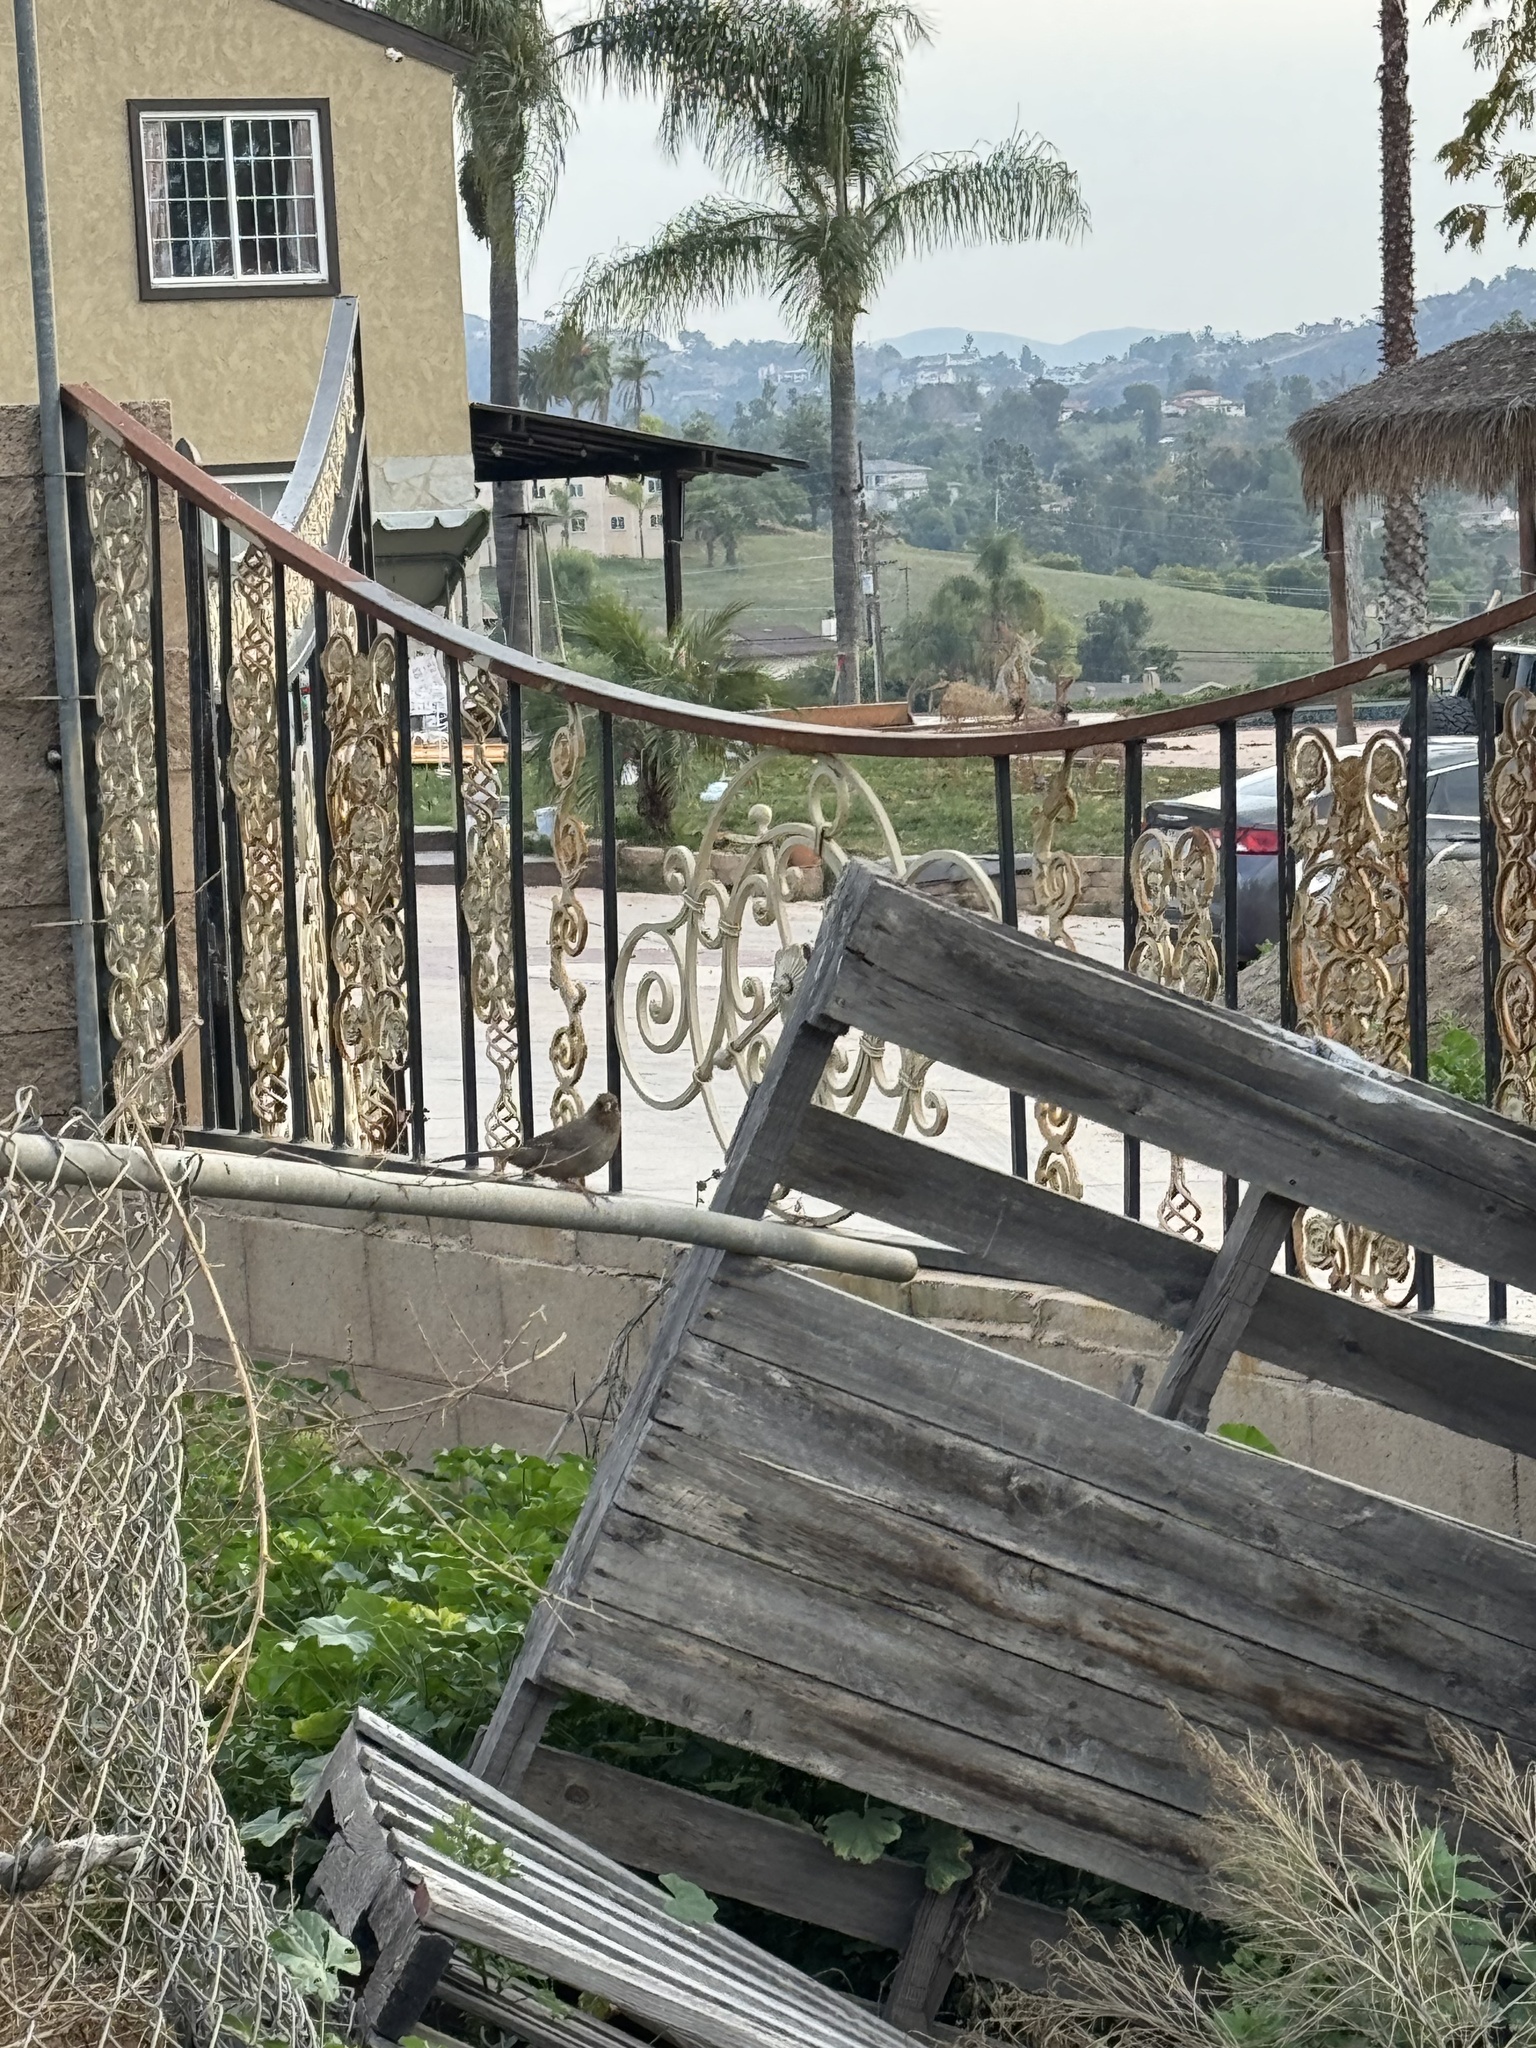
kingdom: Animalia
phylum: Chordata
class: Aves
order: Passeriformes
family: Passerellidae
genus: Melozone
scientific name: Melozone crissalis
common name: California towhee
